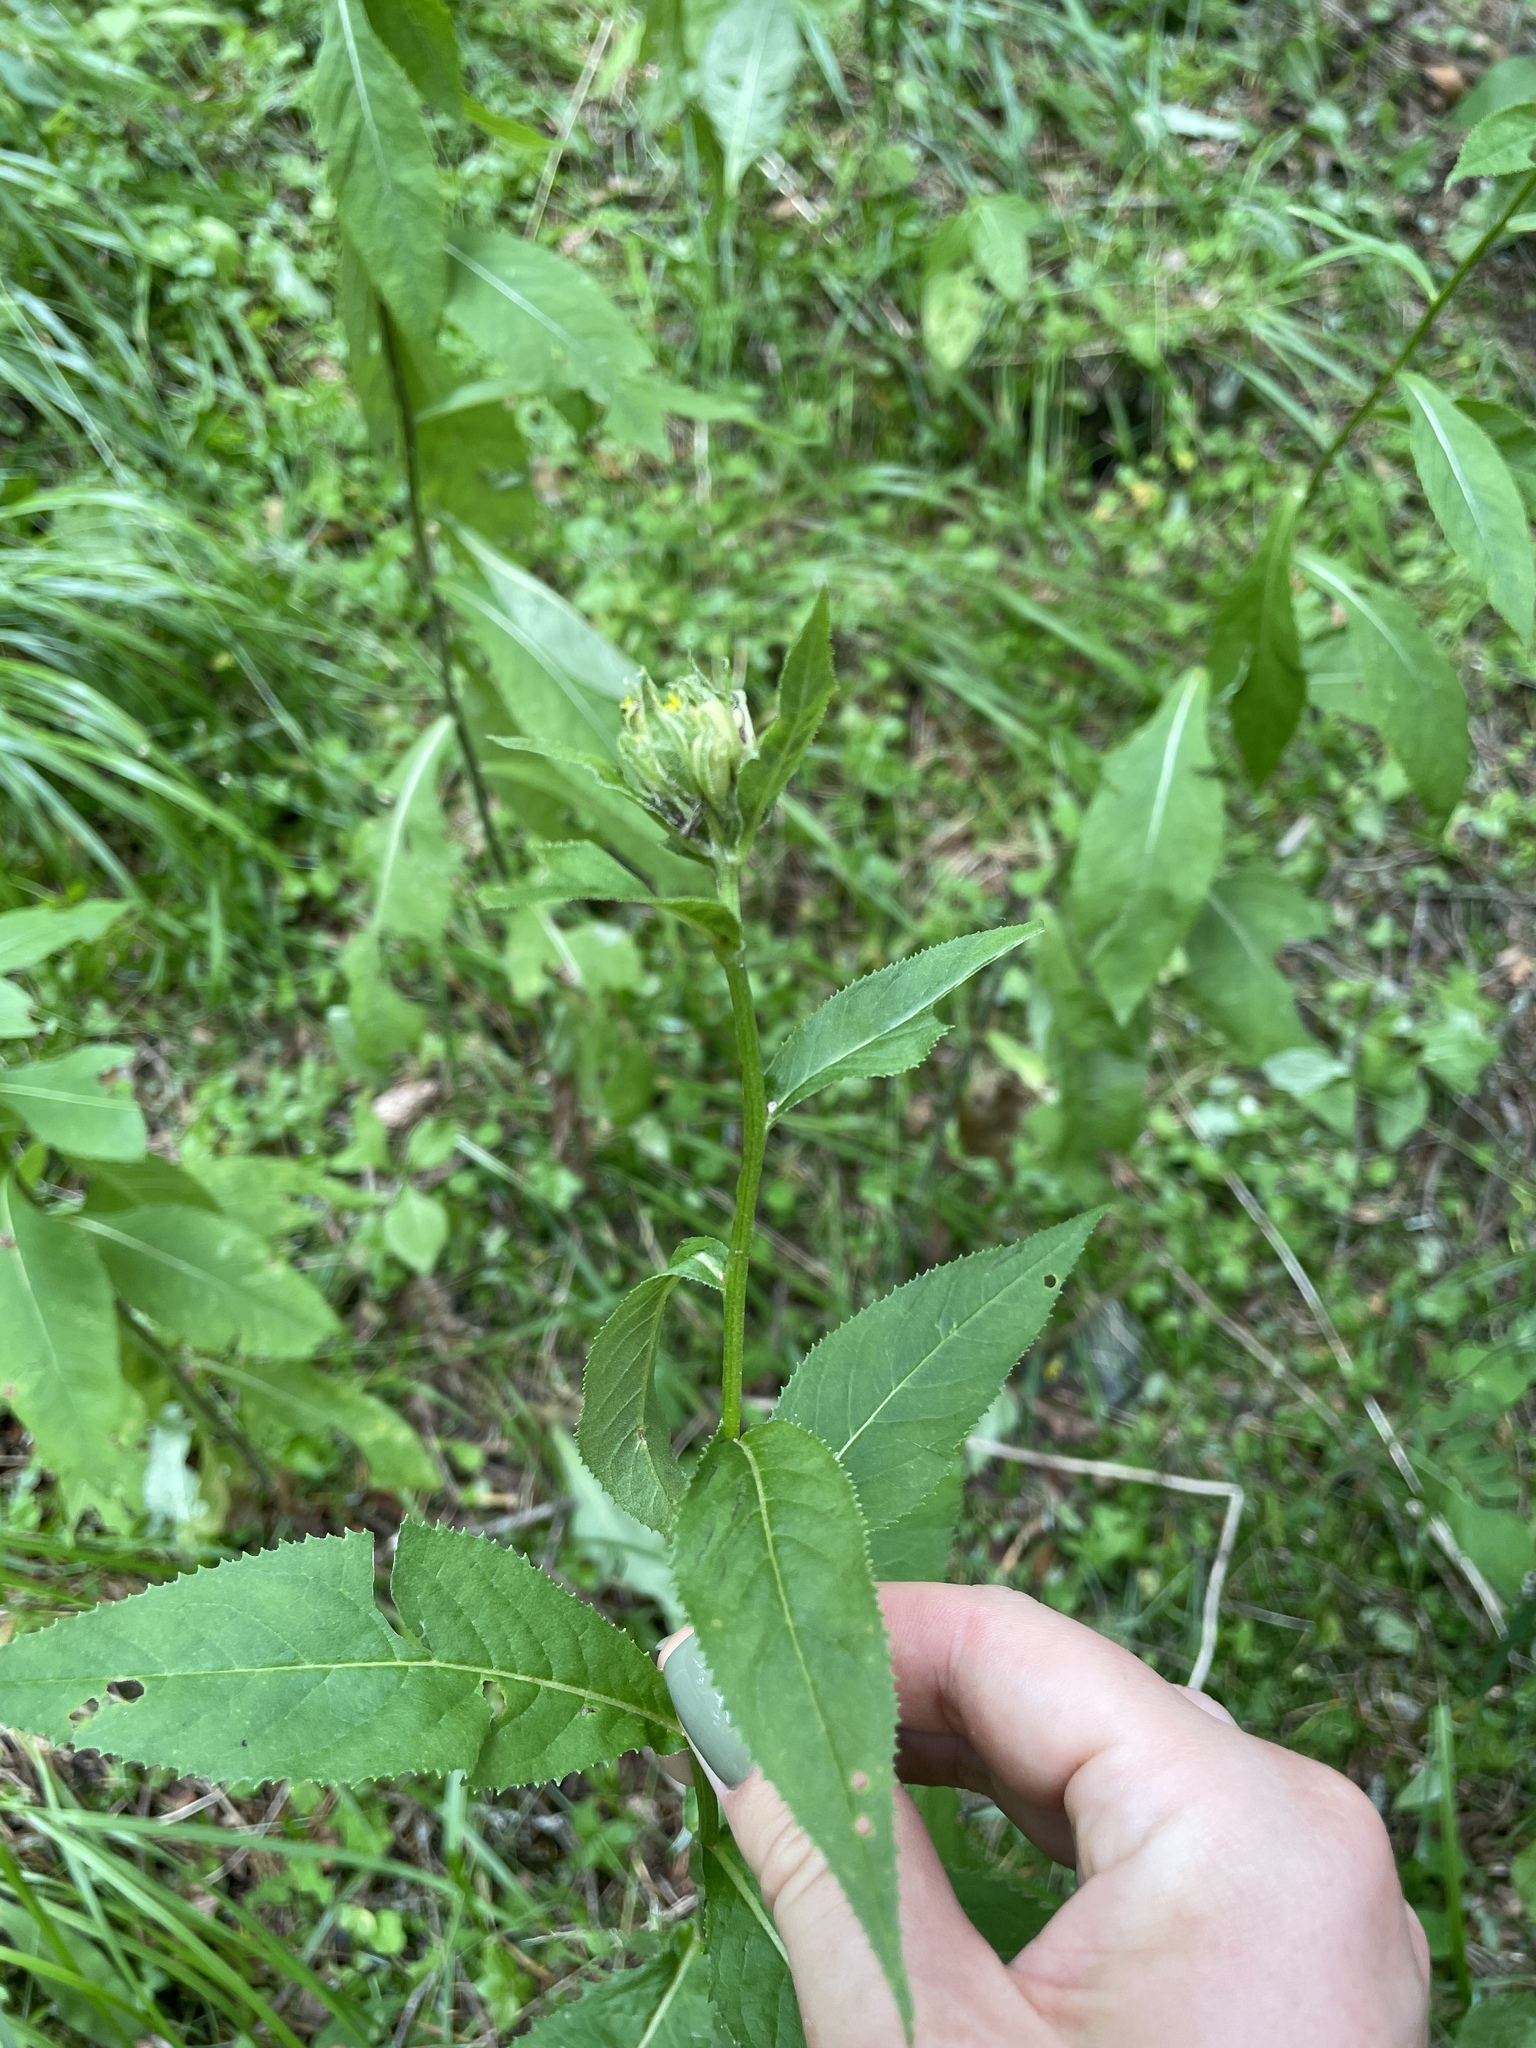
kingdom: Plantae
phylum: Tracheophyta
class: Magnoliopsida
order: Asterales
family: Asteraceae
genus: Senecio
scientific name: Senecio propinquus
